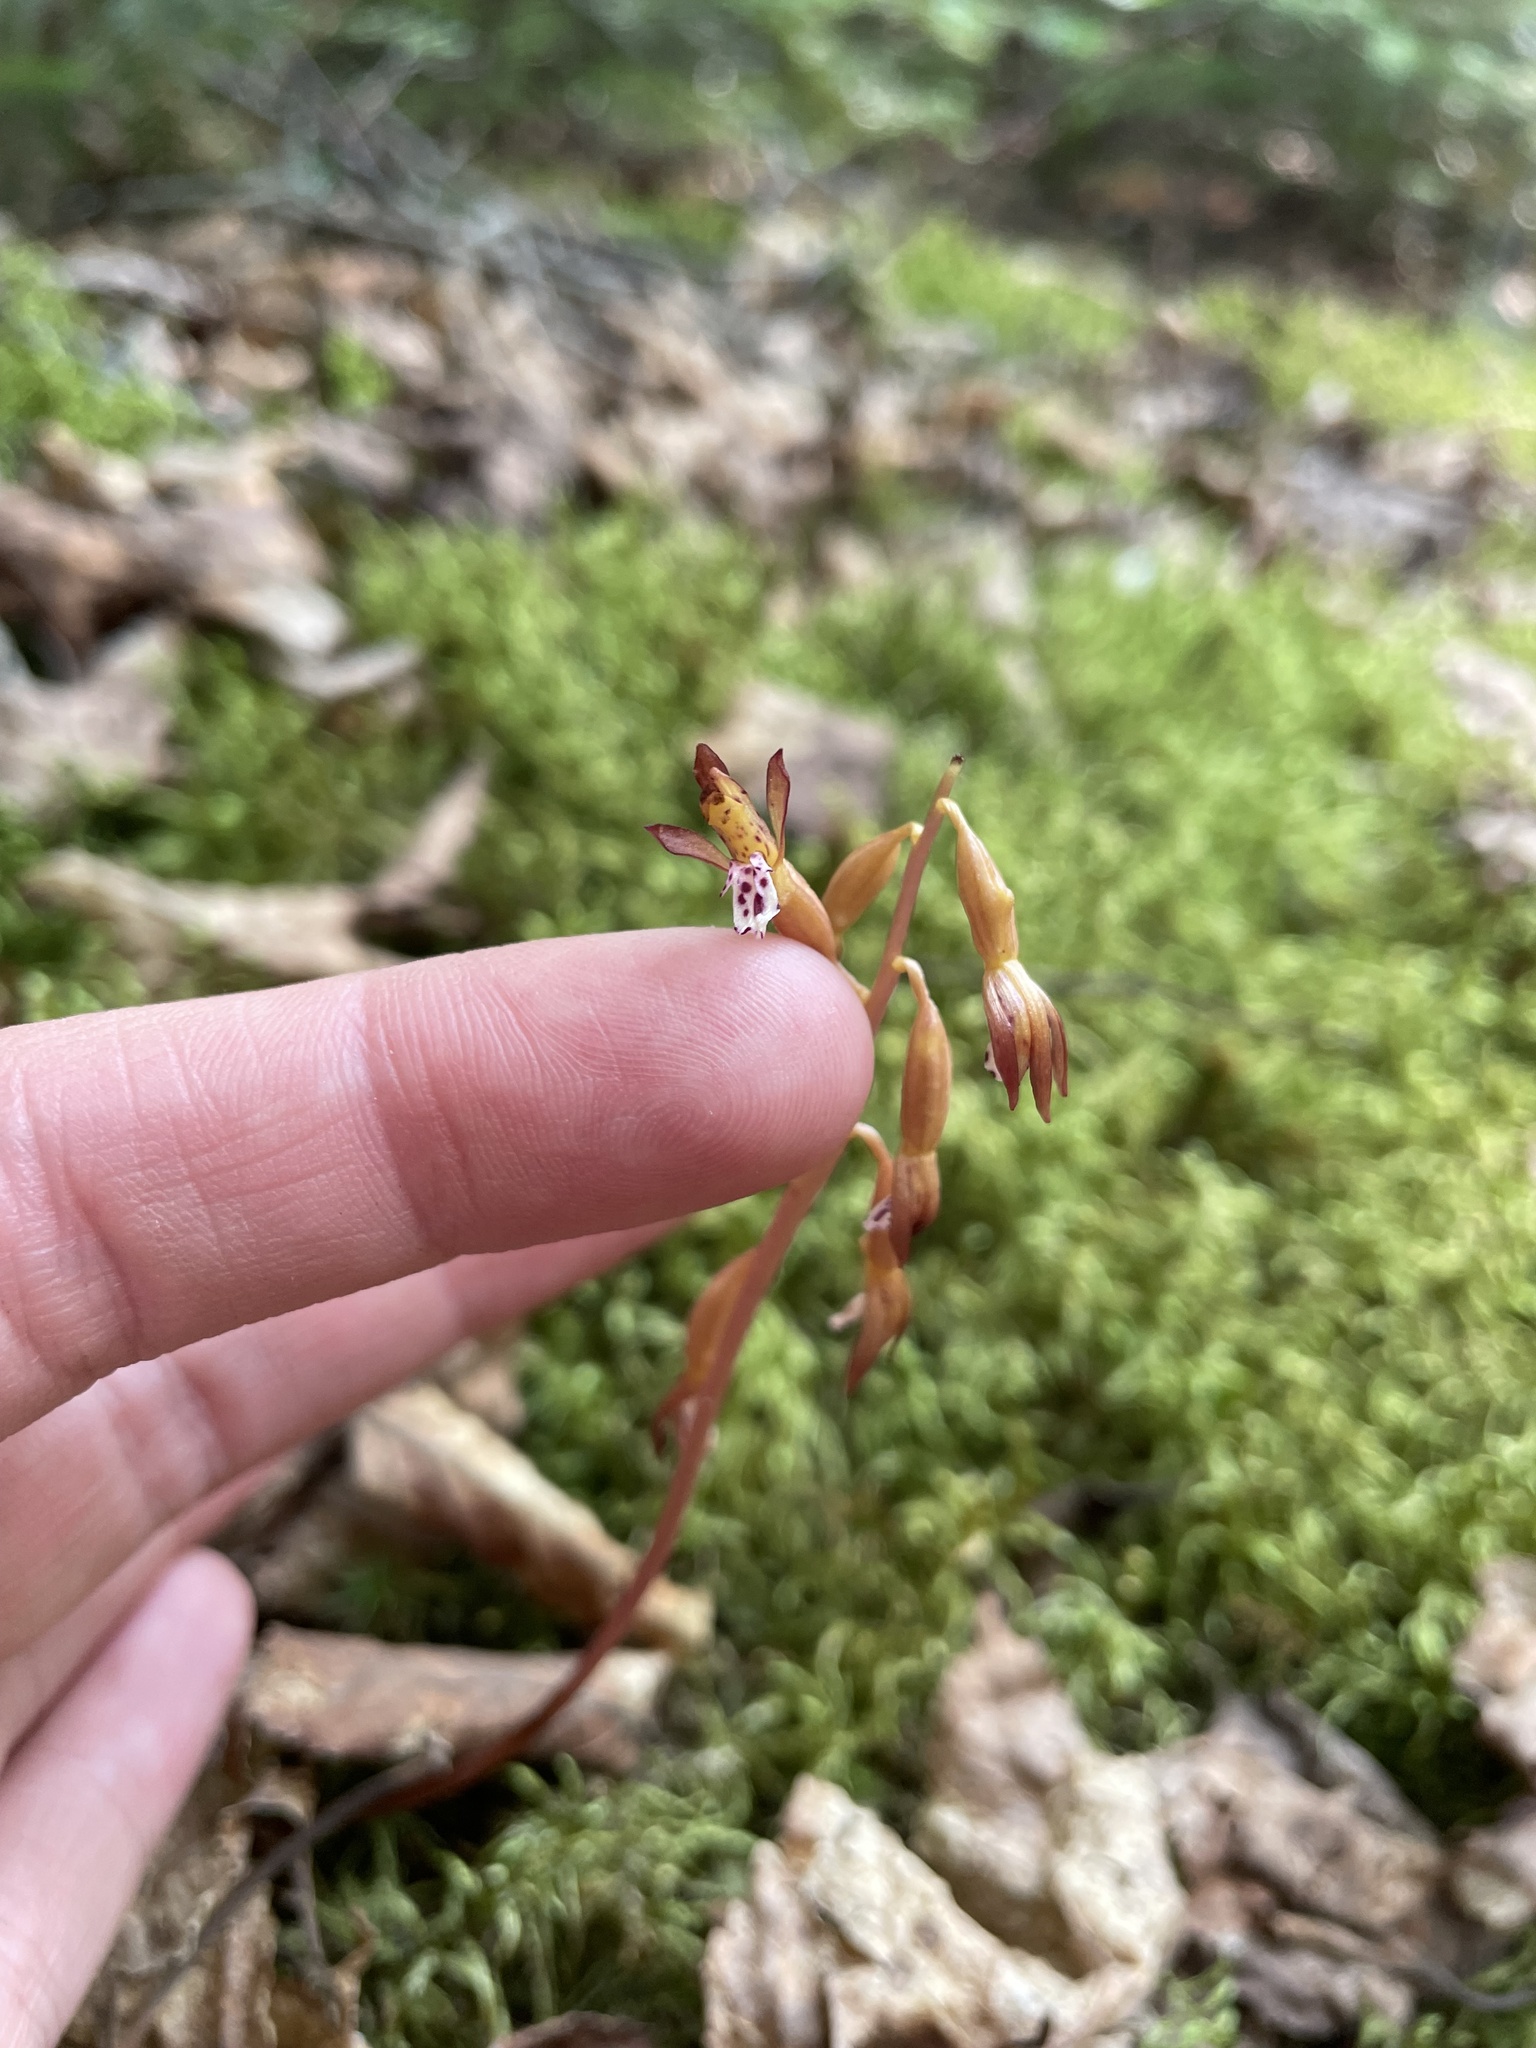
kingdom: Plantae
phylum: Tracheophyta
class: Liliopsida
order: Asparagales
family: Orchidaceae
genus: Corallorhiza
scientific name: Corallorhiza maculata
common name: Spotted coralroot
